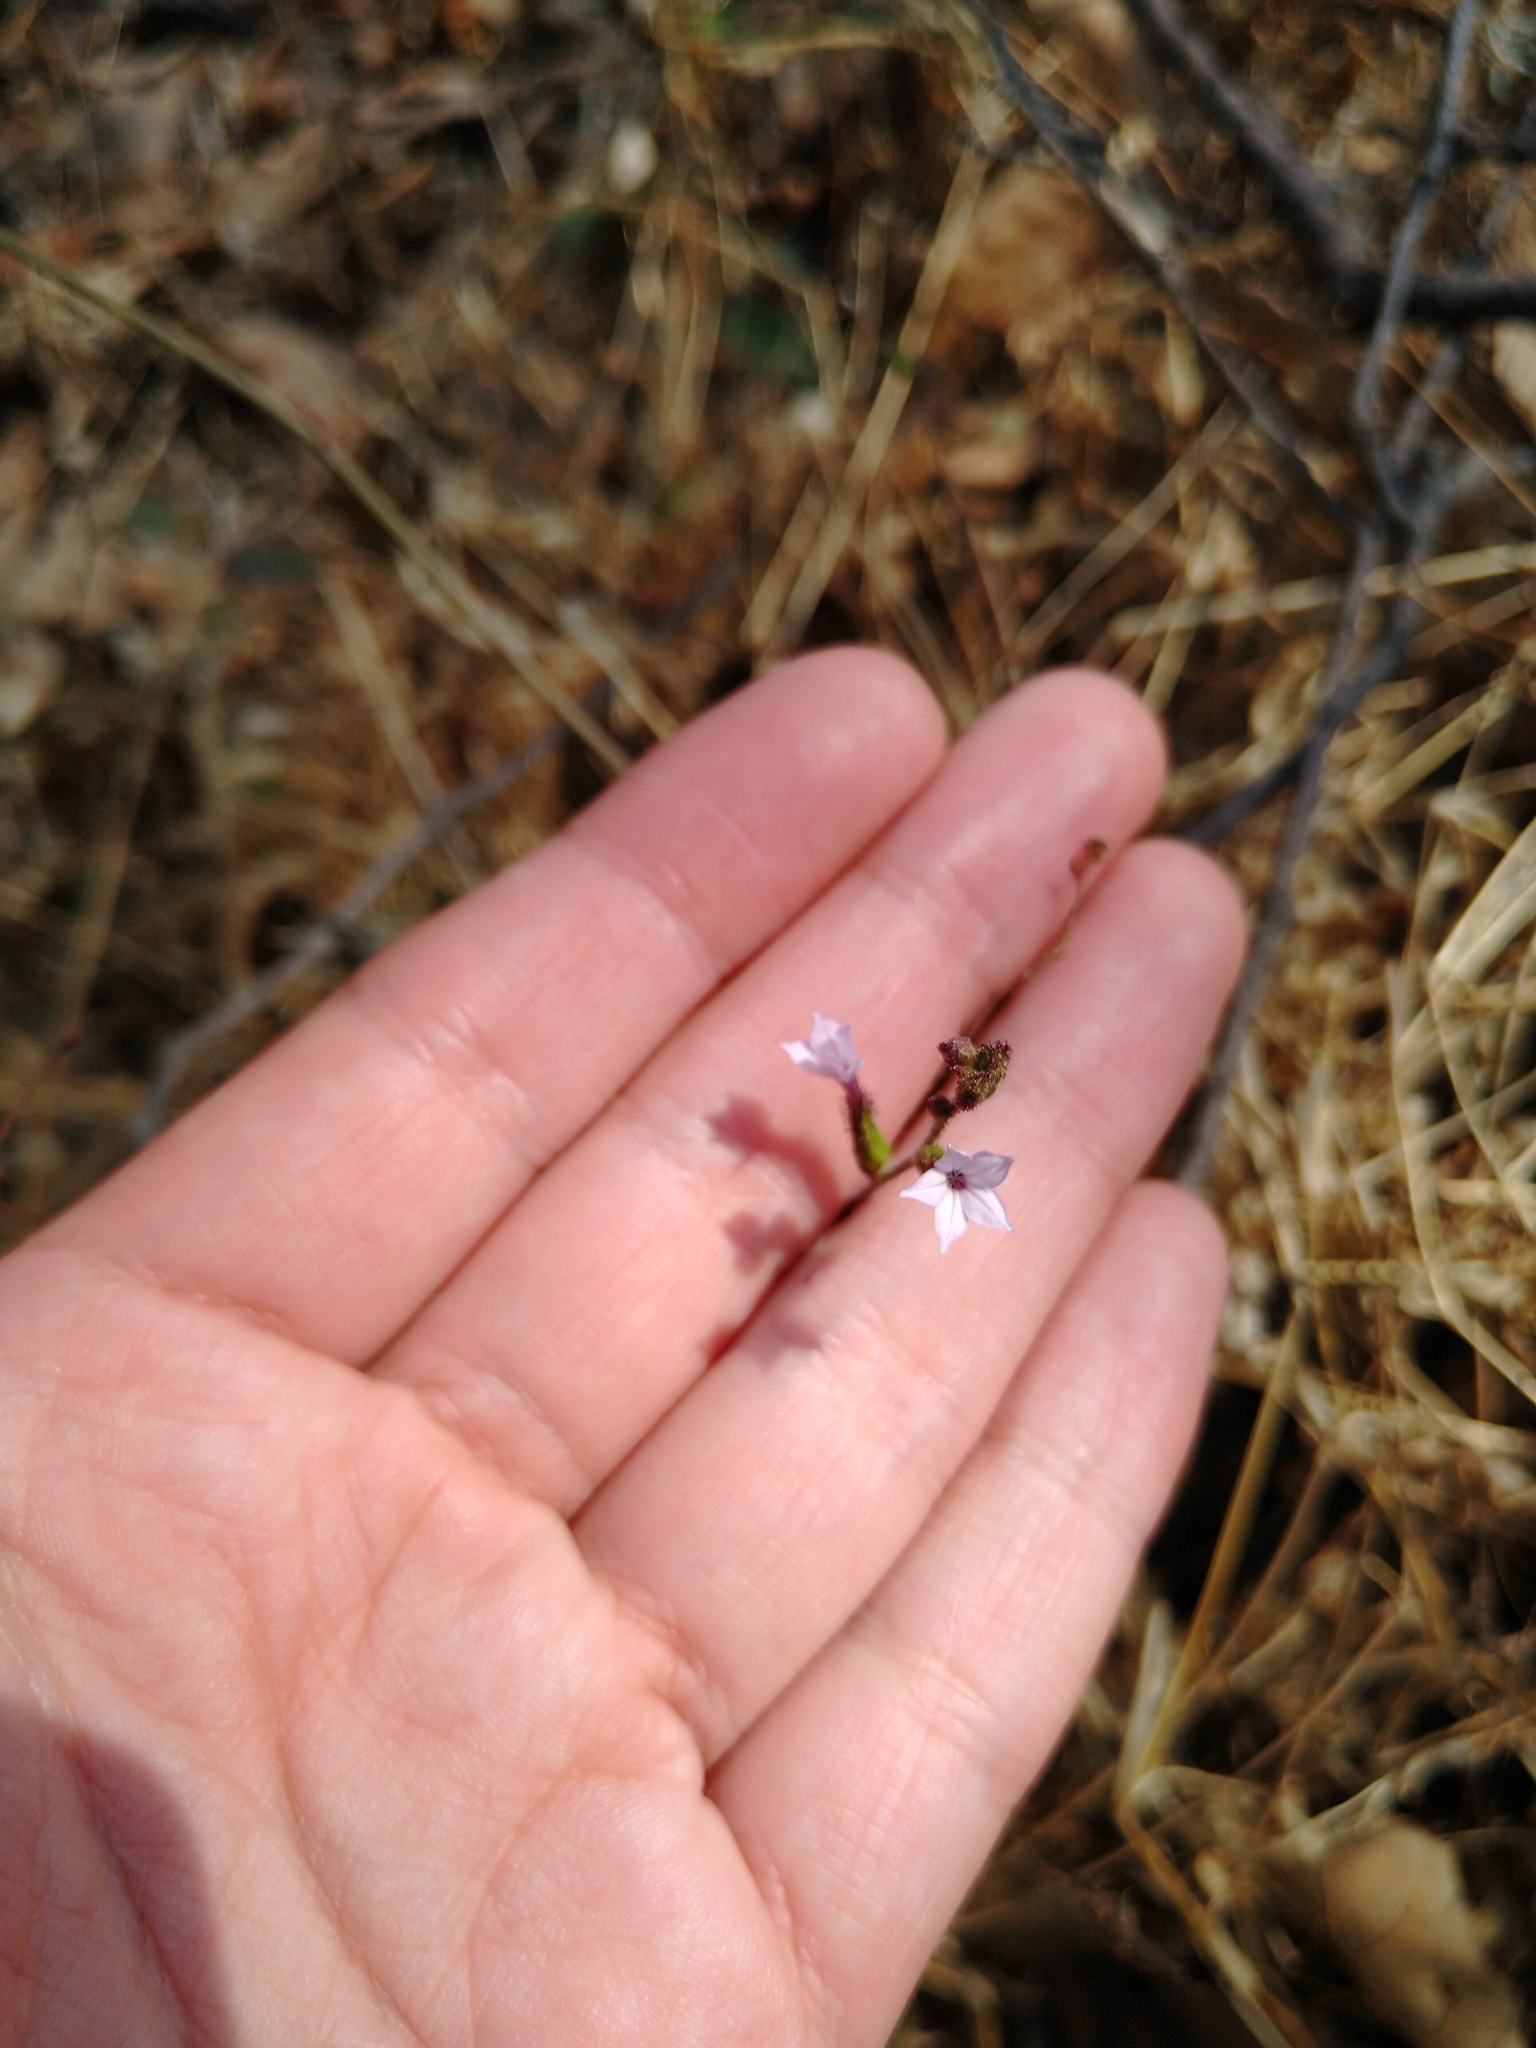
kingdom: Plantae
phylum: Tracheophyta
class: Magnoliopsida
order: Caryophyllales
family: Plumbaginaceae
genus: Plumbago
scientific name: Plumbago pulchella
